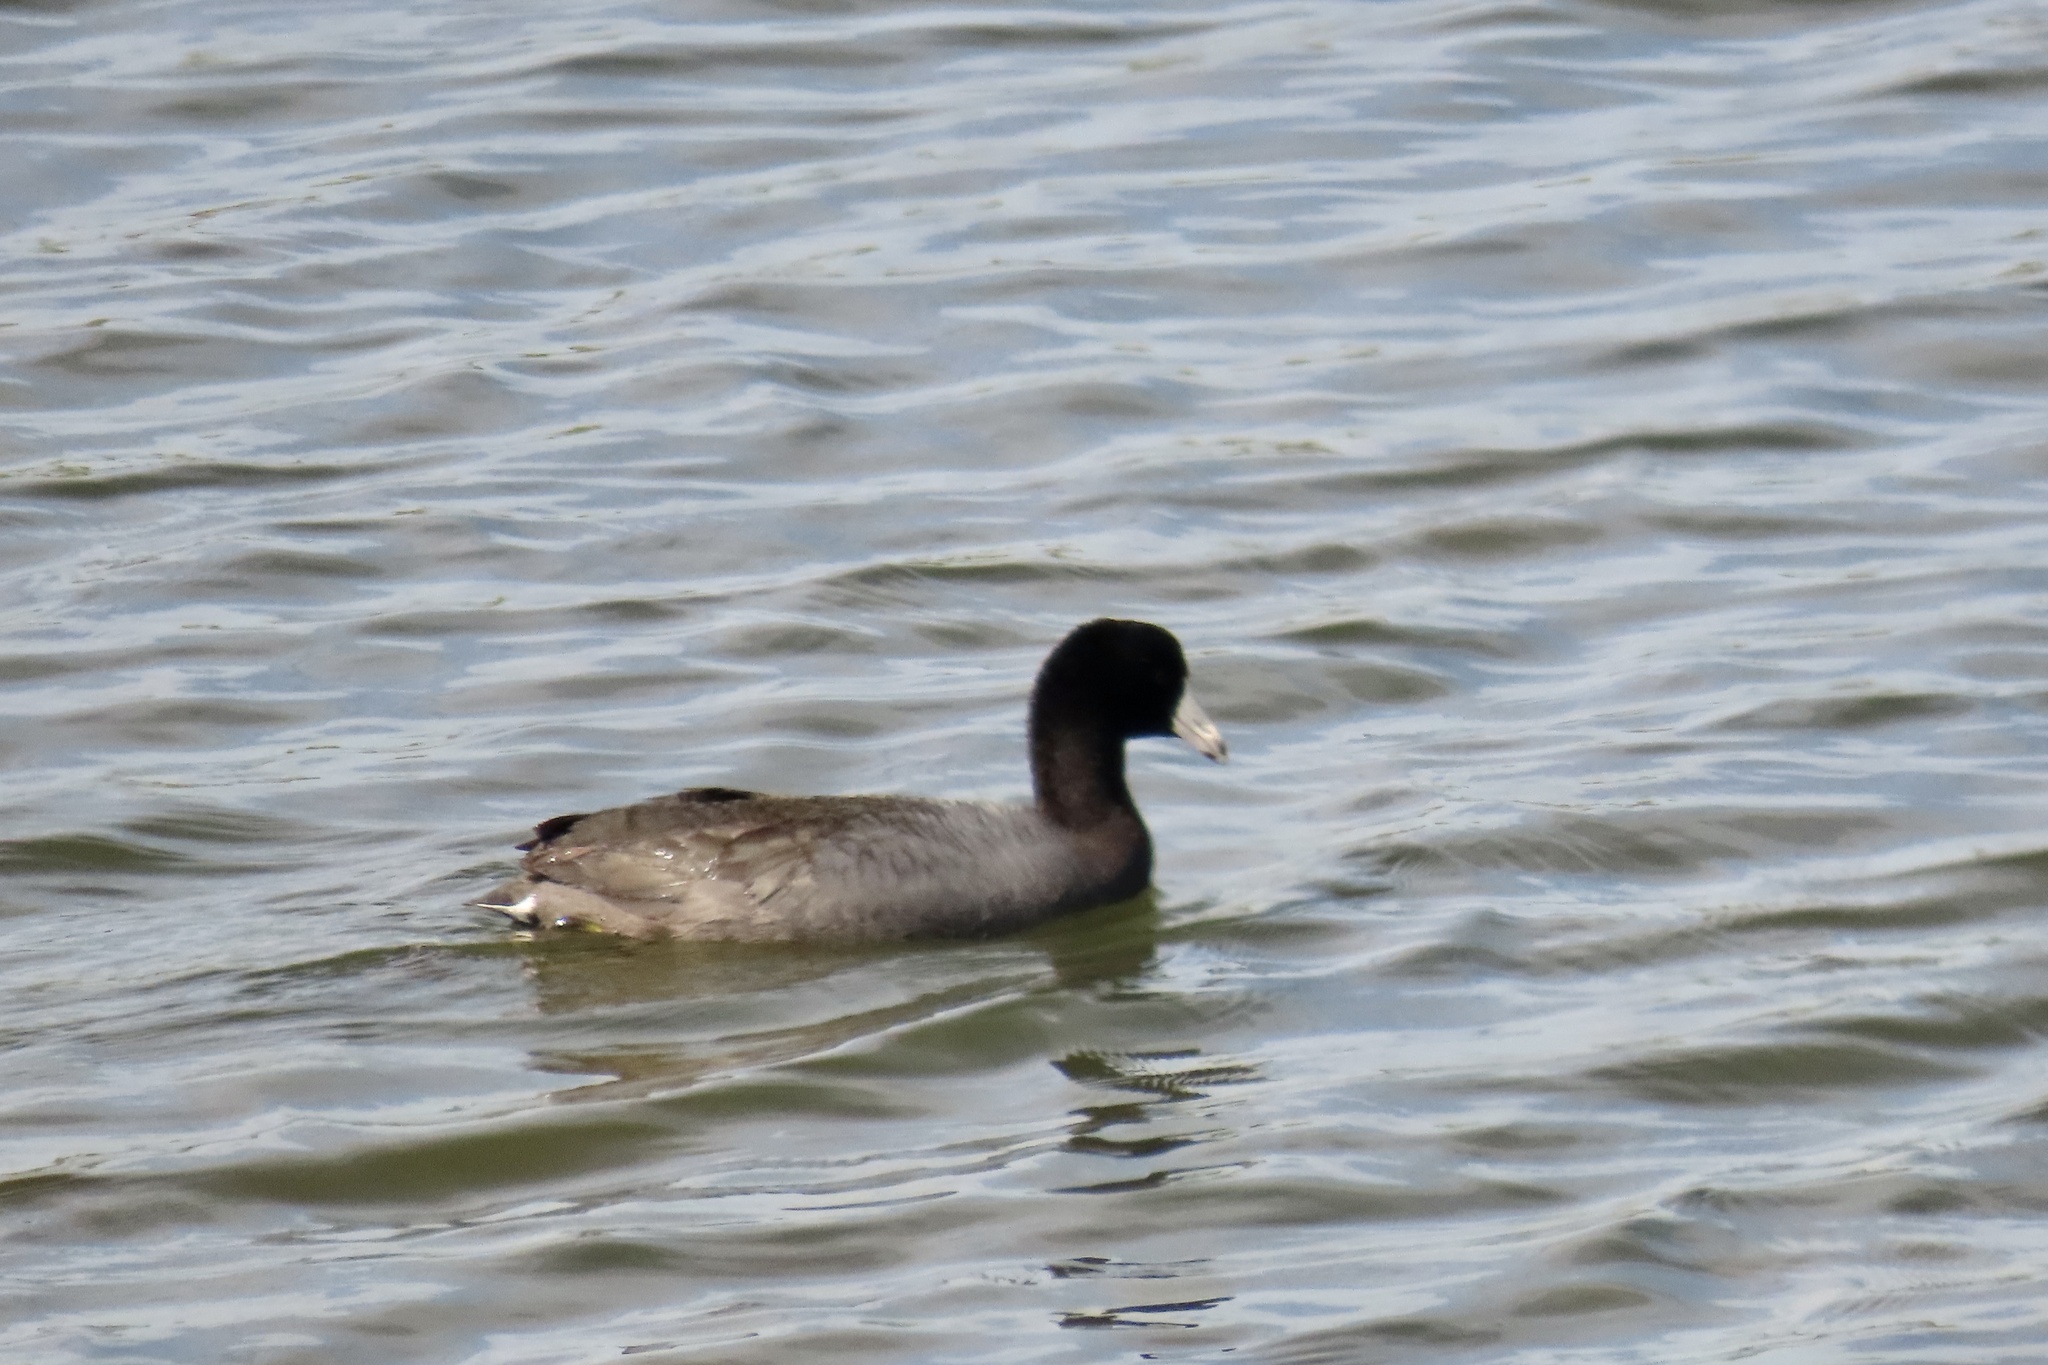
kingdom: Animalia
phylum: Chordata
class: Aves
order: Gruiformes
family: Rallidae
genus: Fulica
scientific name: Fulica americana
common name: American coot
